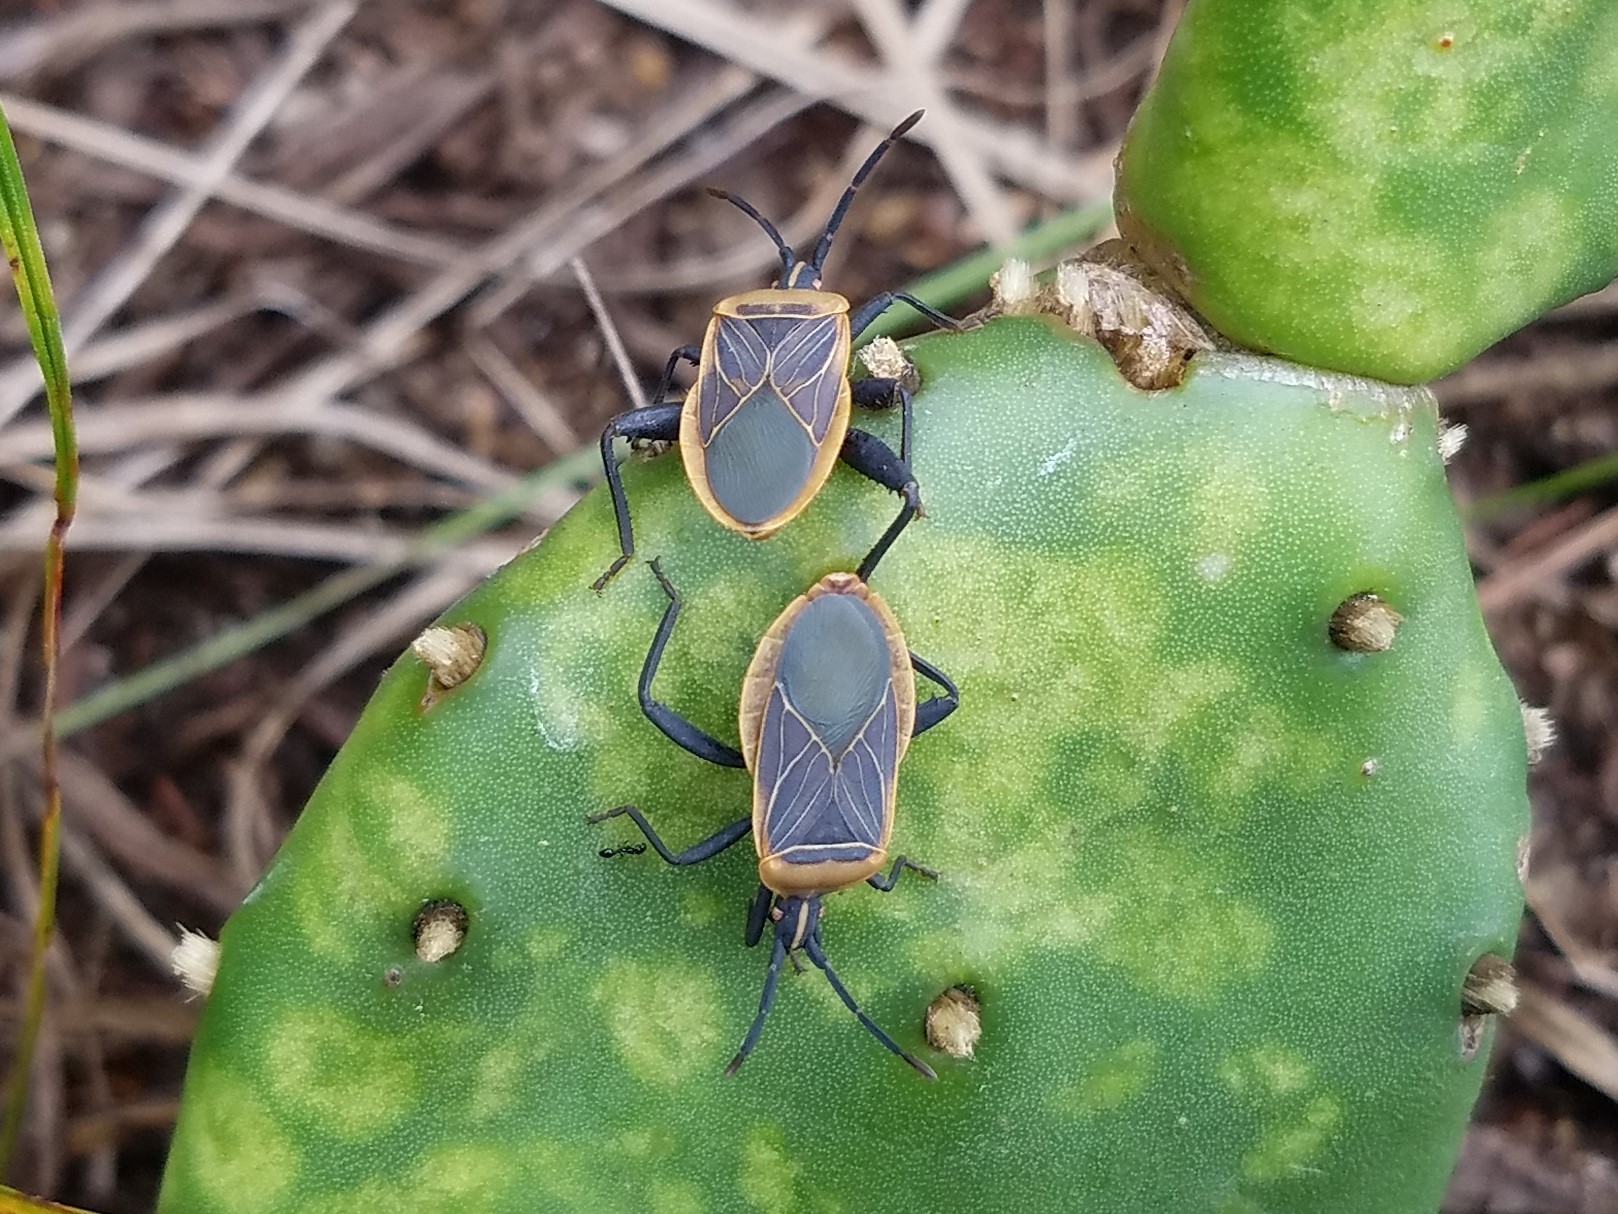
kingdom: Animalia
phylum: Arthropoda
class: Insecta
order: Hemiptera
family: Coreidae
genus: Chelinidea
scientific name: Chelinidea vittiger
